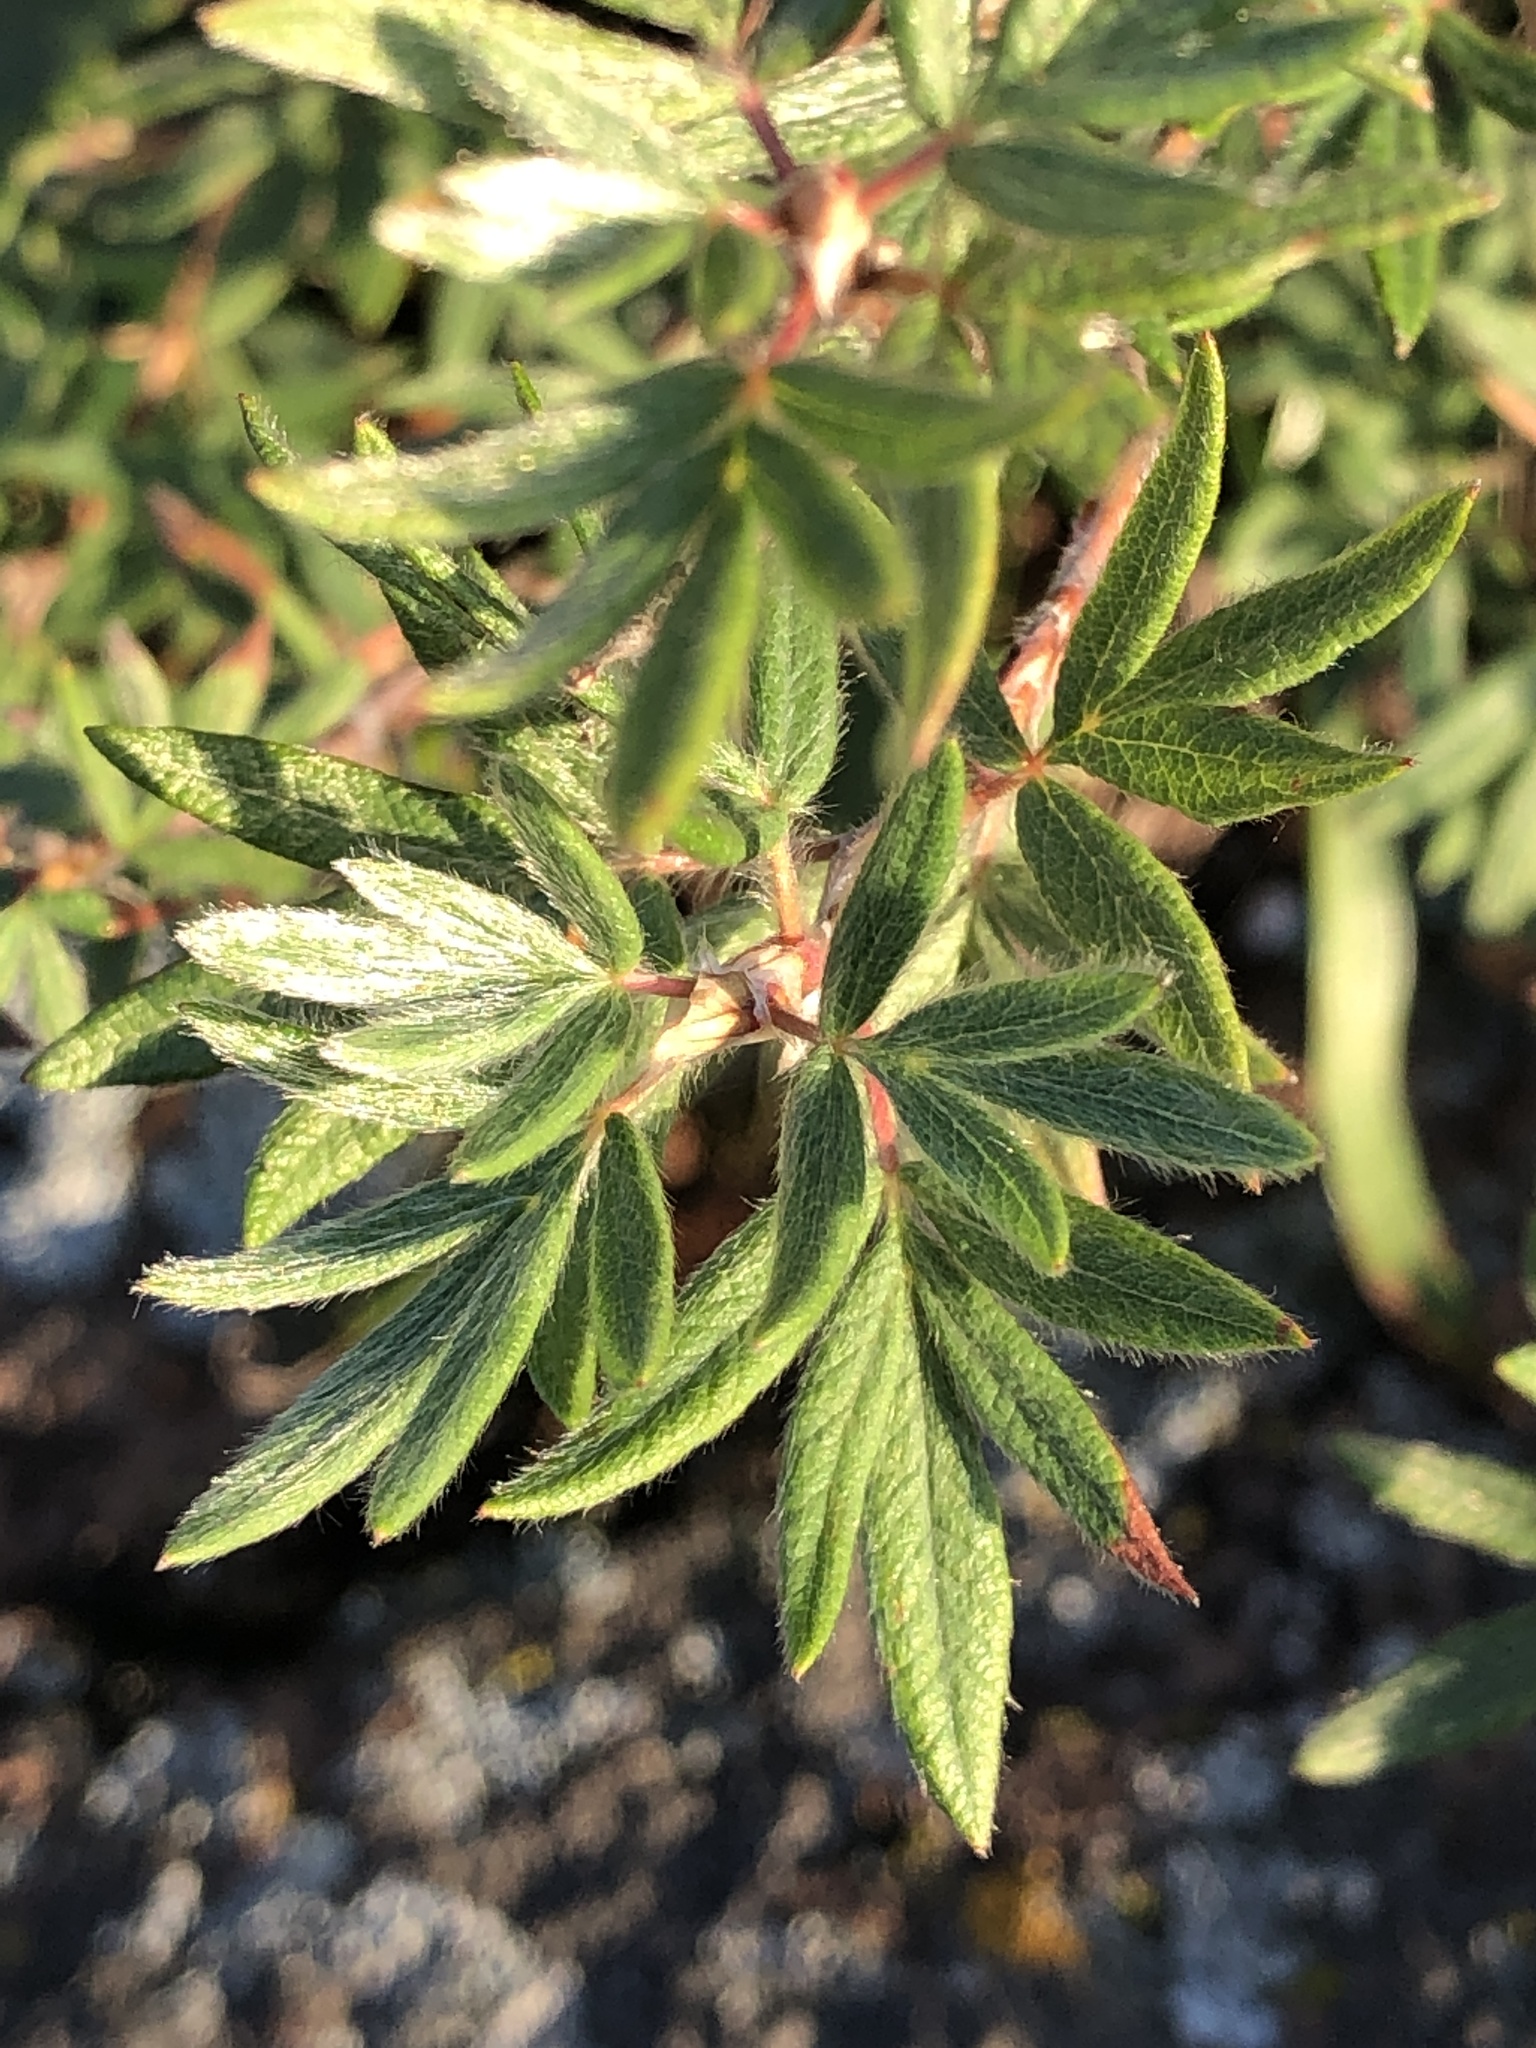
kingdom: Plantae
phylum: Tracheophyta
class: Magnoliopsida
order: Rosales
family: Rosaceae
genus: Dasiphora
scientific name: Dasiphora fruticosa
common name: Shrubby cinquefoil
